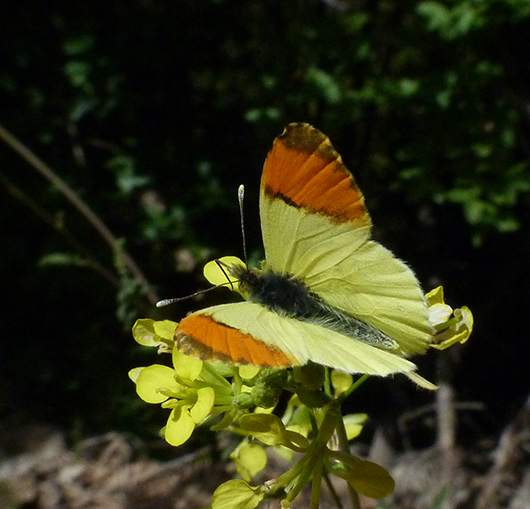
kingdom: Animalia
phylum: Arthropoda
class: Insecta
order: Lepidoptera
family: Pieridae
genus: Anthocharis
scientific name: Anthocharis euphenoides
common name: Provence orange-tip
